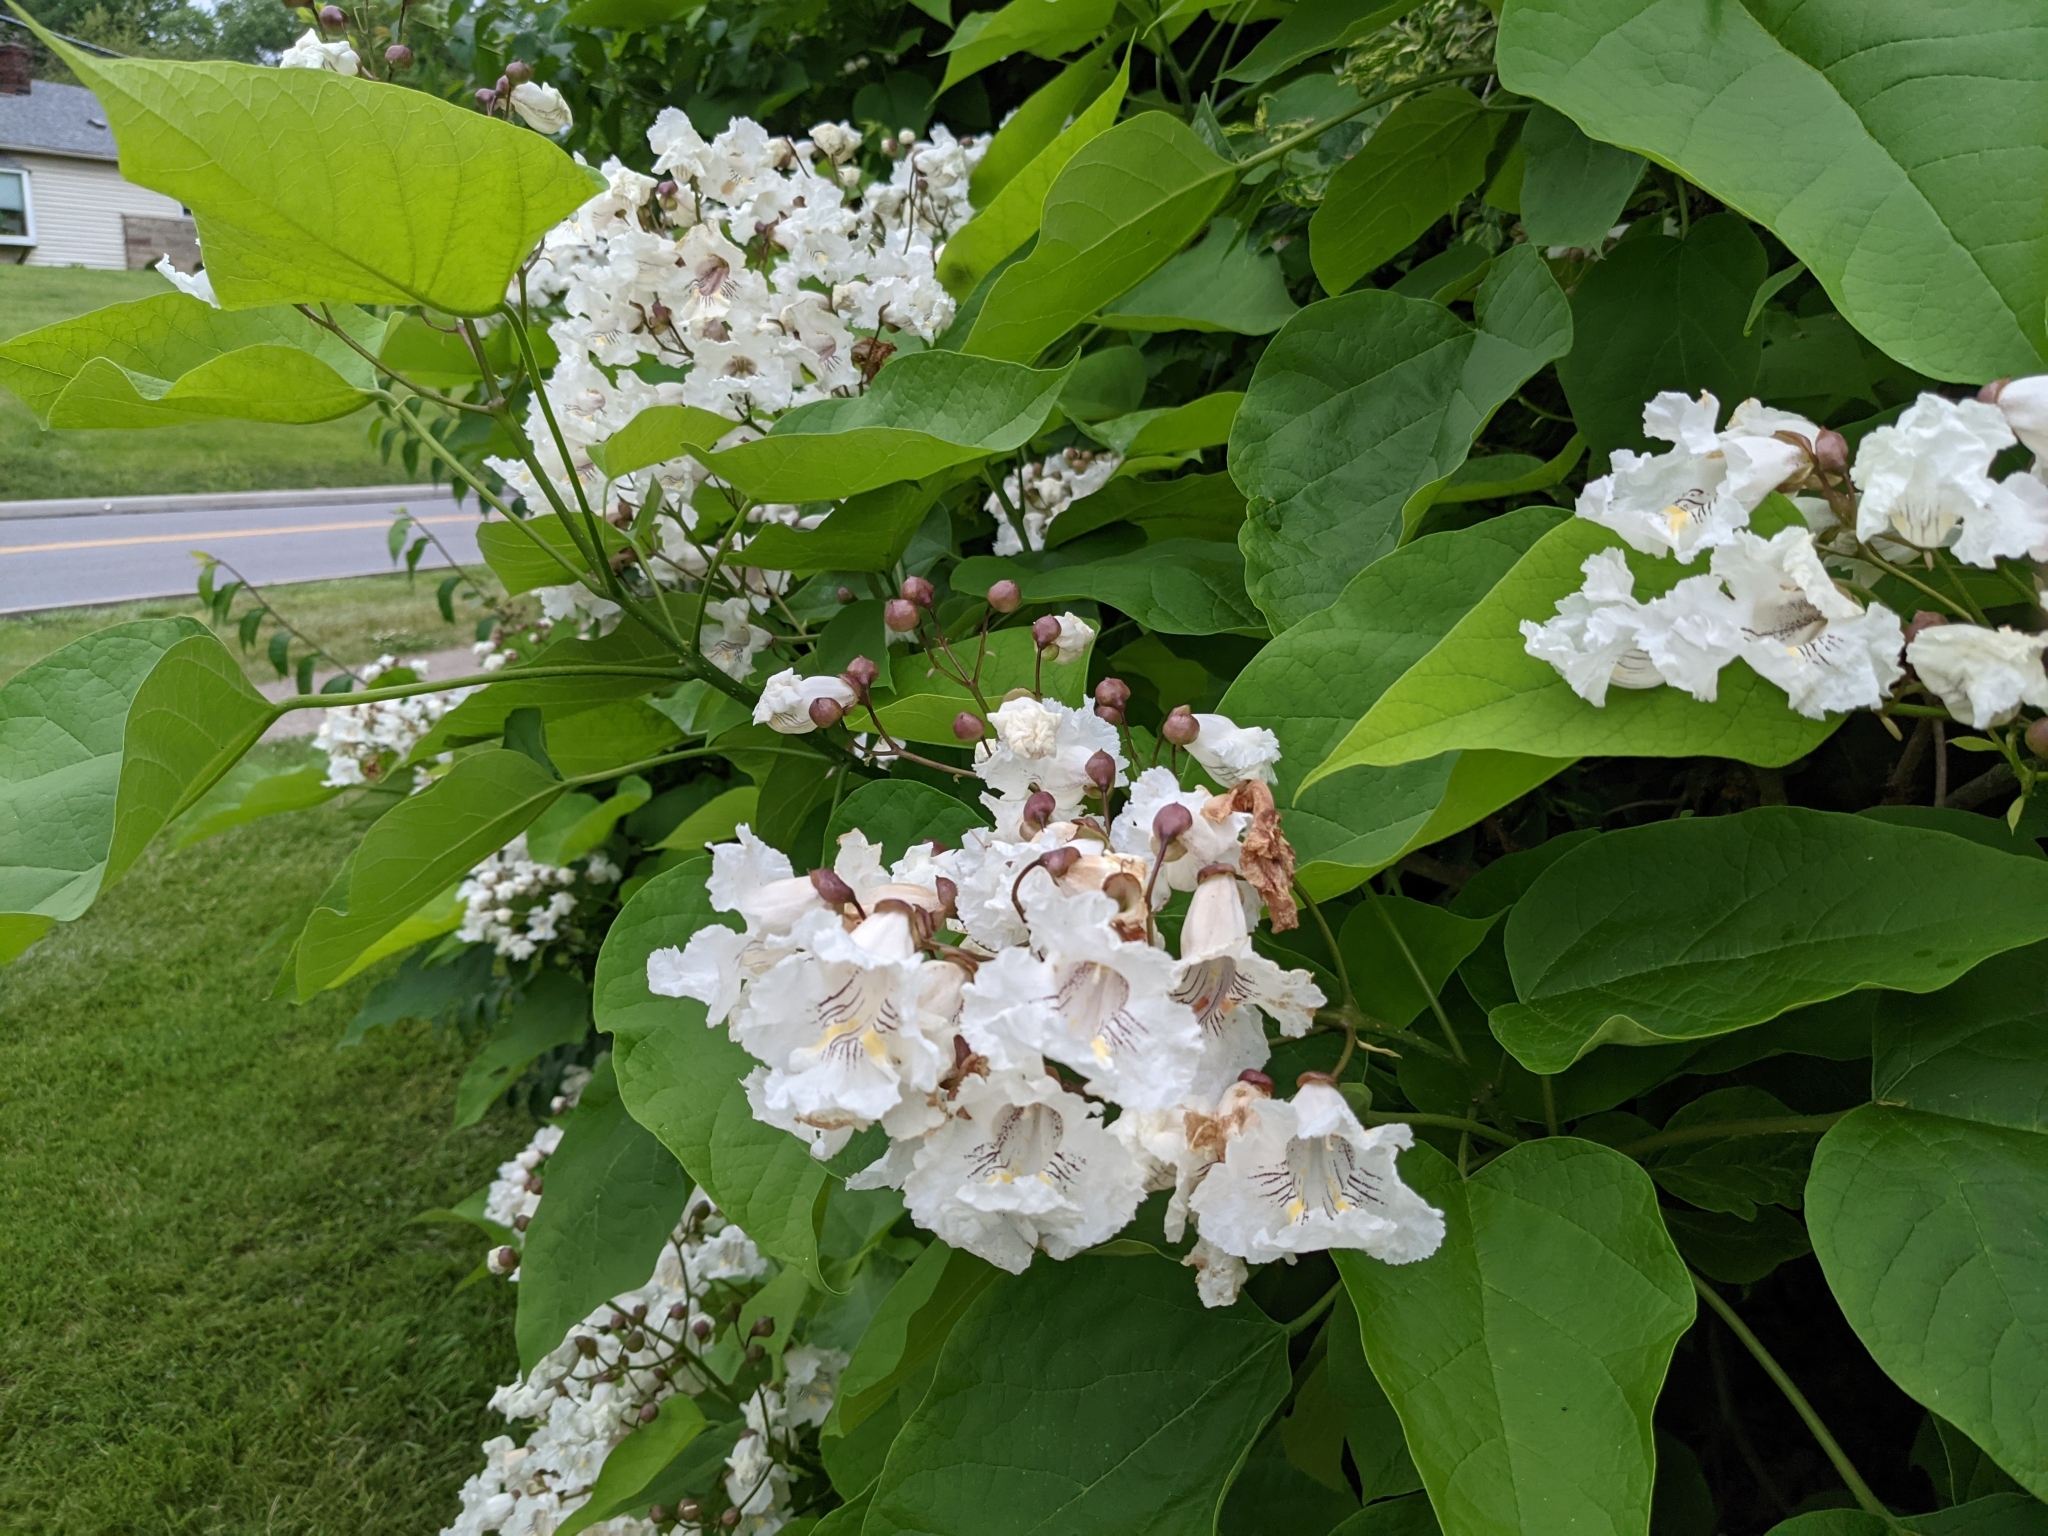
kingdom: Plantae
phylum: Tracheophyta
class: Magnoliopsida
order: Lamiales
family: Bignoniaceae
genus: Catalpa
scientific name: Catalpa speciosa
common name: Northern catalpa
